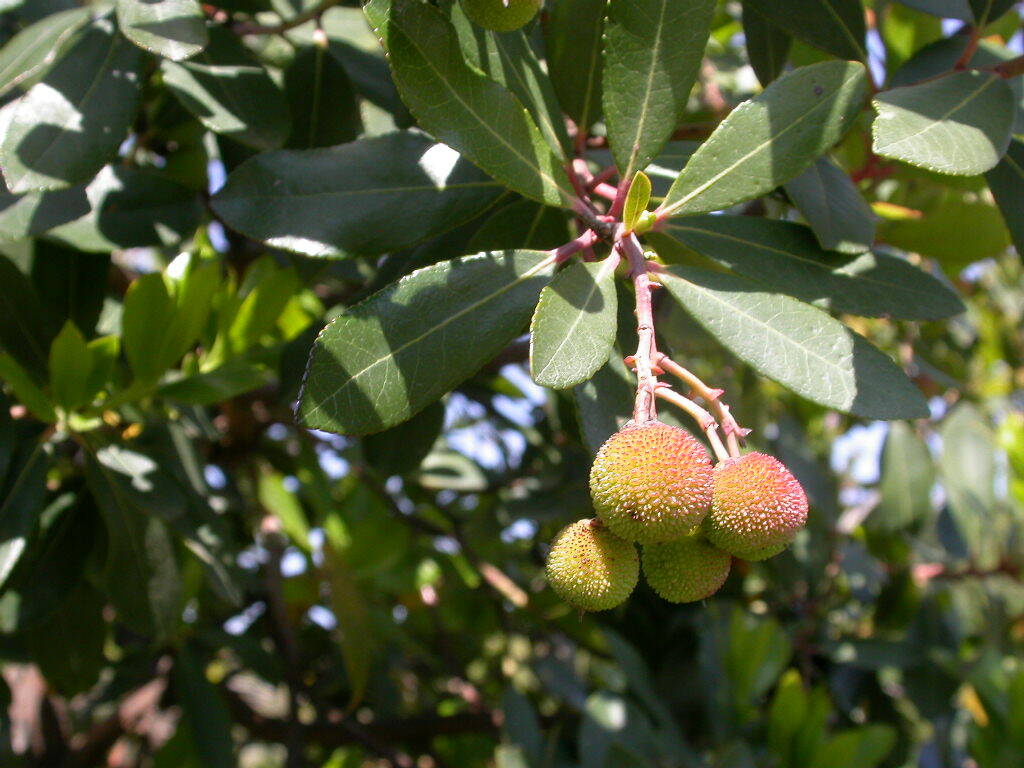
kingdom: Plantae
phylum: Tracheophyta
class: Magnoliopsida
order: Ericales
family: Ericaceae
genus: Arbutus
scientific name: Arbutus unedo
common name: Strawberry-tree
